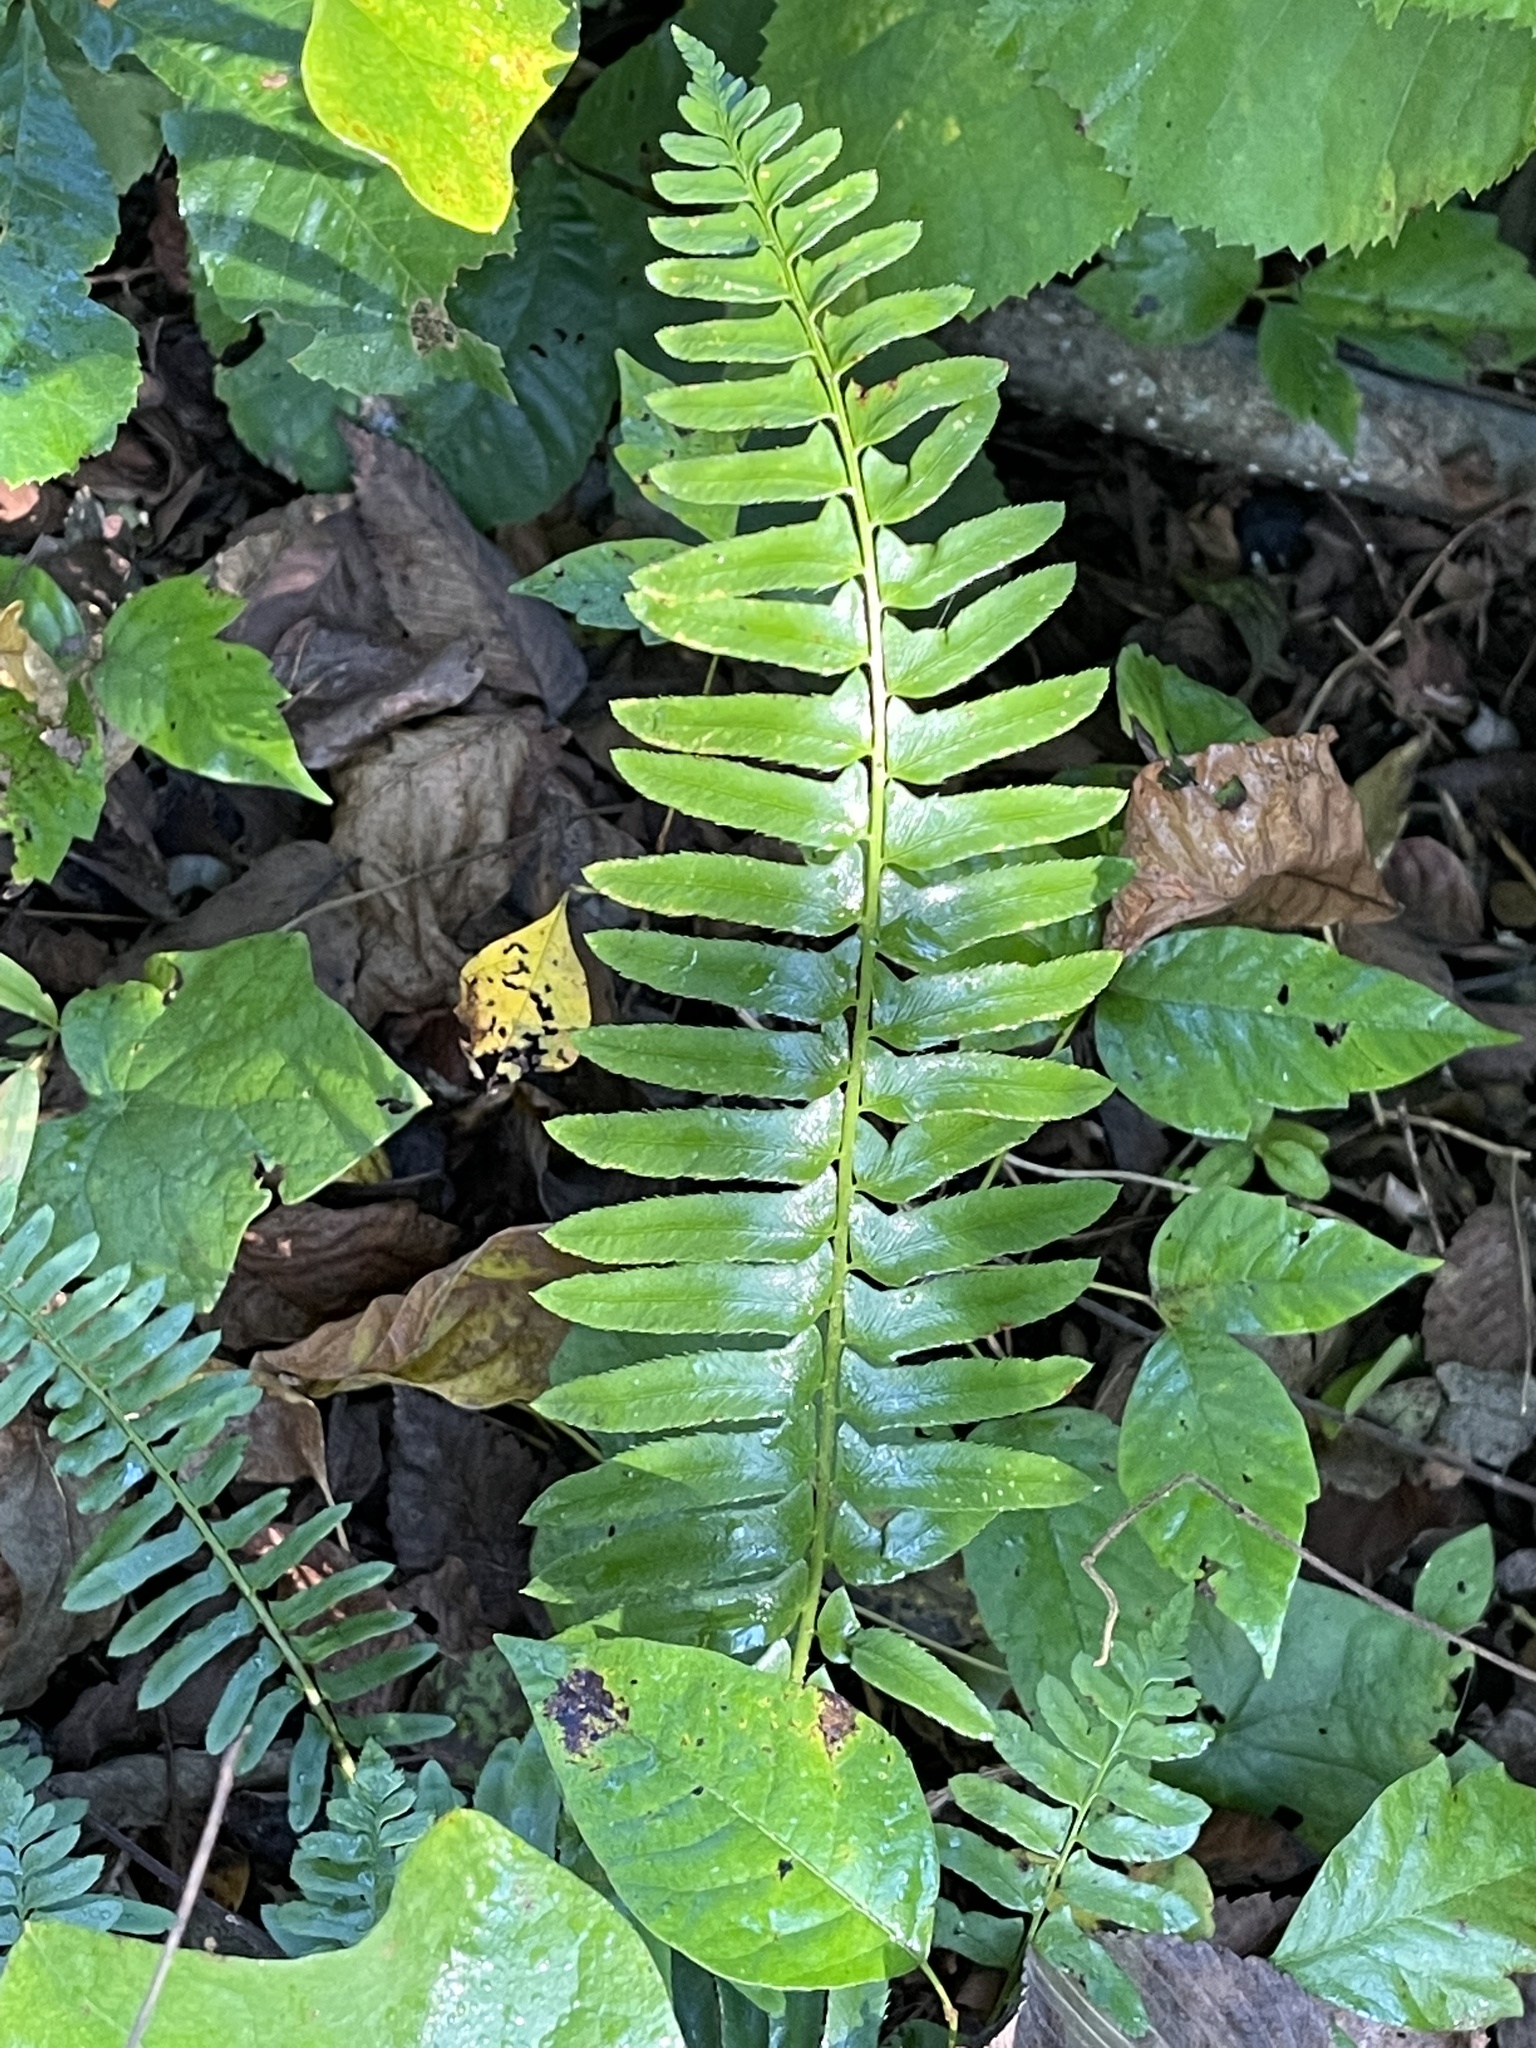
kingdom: Plantae
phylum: Tracheophyta
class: Polypodiopsida
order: Polypodiales
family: Dryopteridaceae
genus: Polystichum
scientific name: Polystichum acrostichoides
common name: Christmas fern
